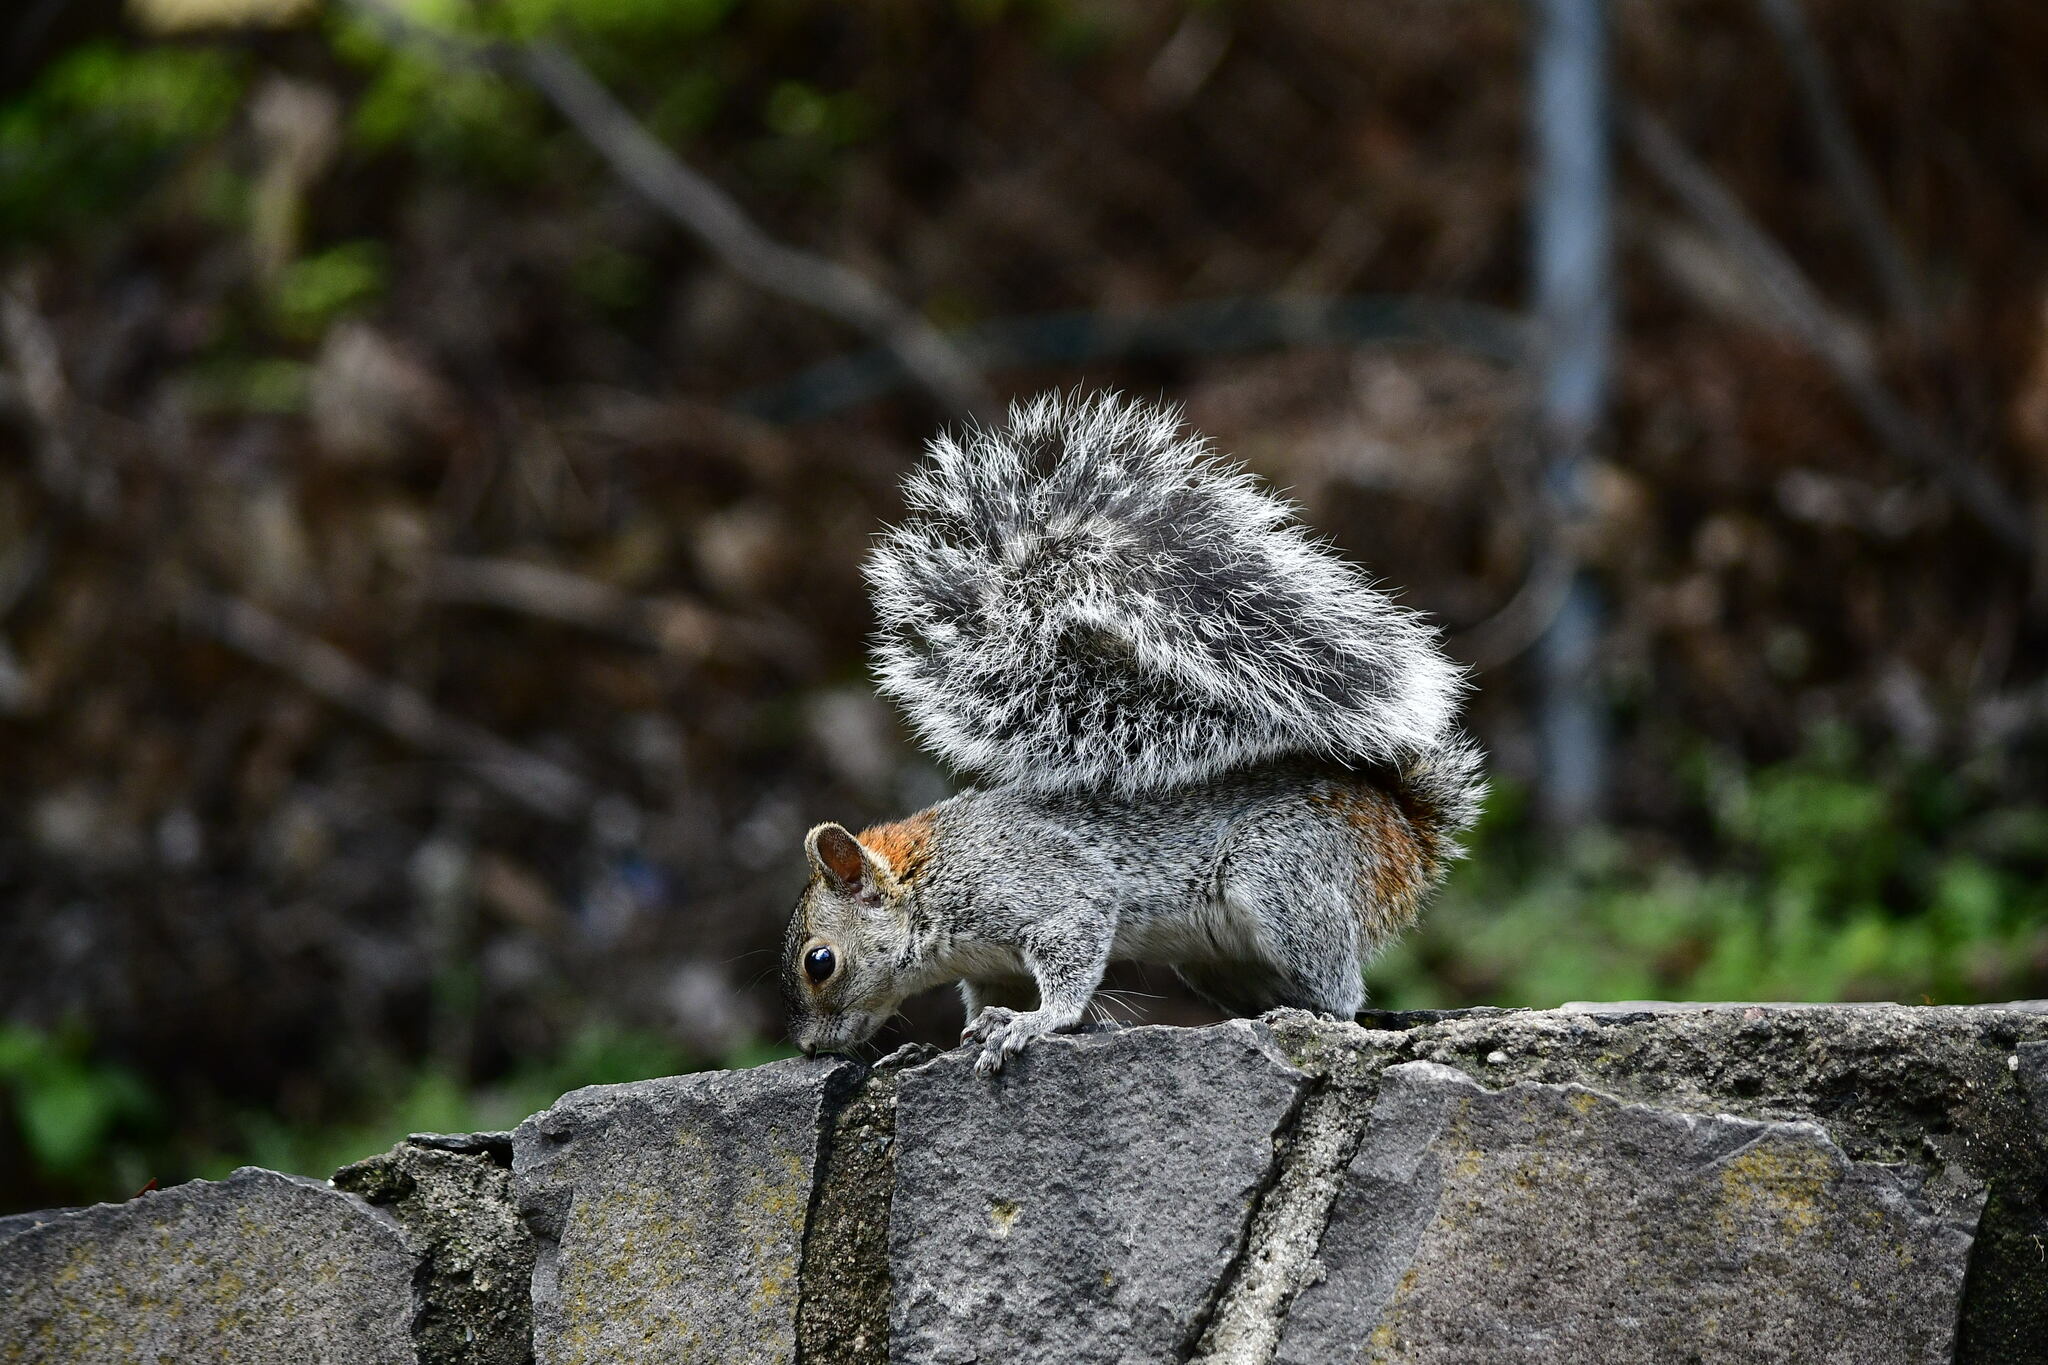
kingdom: Animalia
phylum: Chordata
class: Mammalia
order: Rodentia
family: Sciuridae
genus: Sciurus
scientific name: Sciurus aureogaster
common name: Red-bellied squirrel
